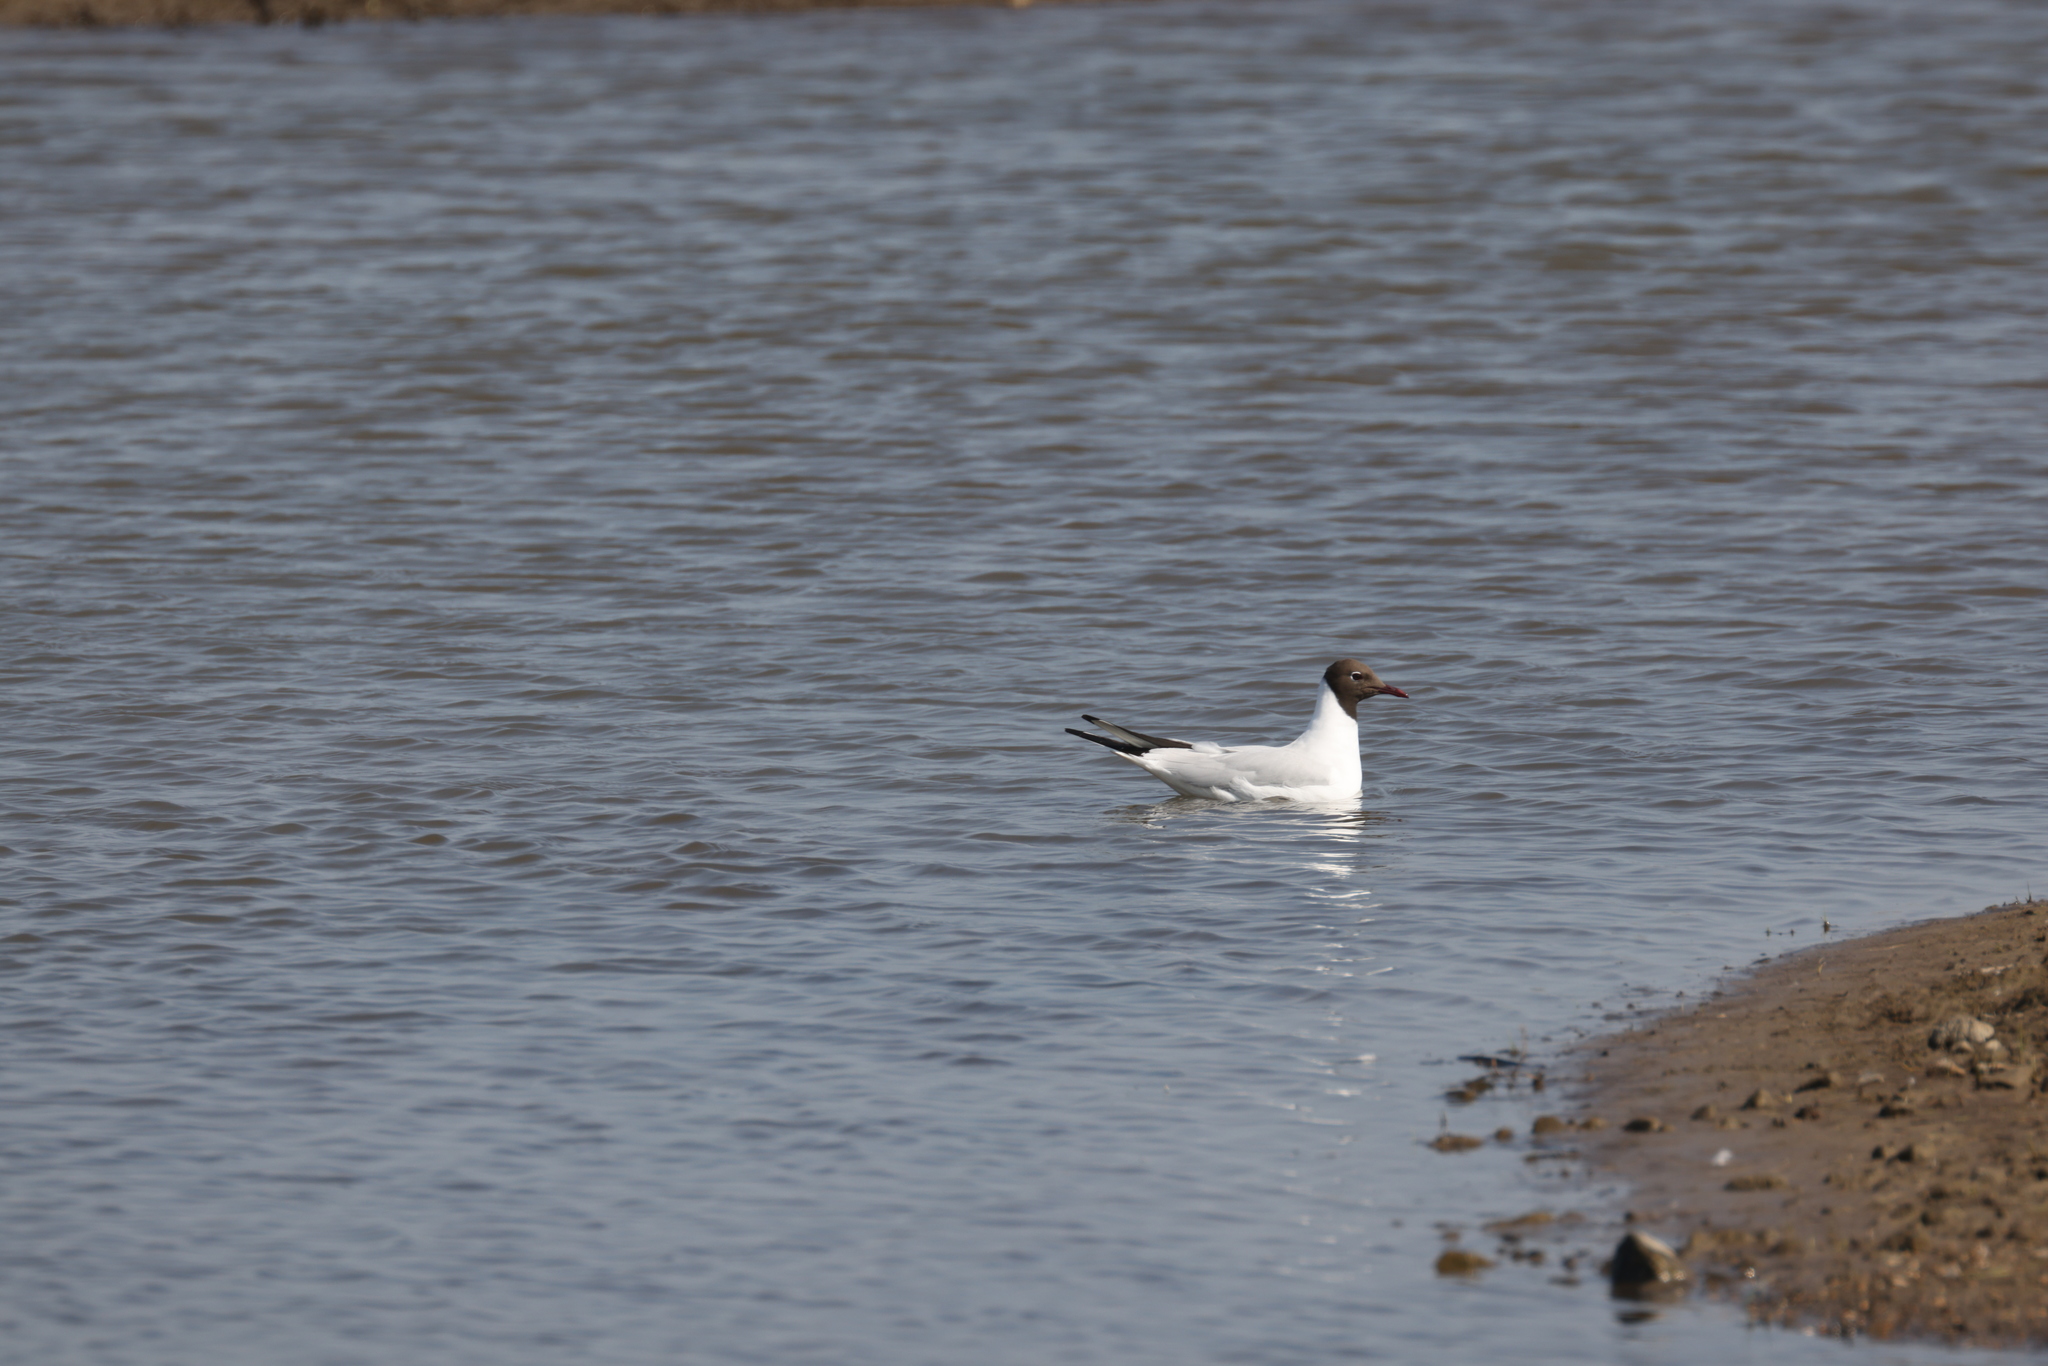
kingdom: Animalia
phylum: Chordata
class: Aves
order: Charadriiformes
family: Laridae
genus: Chroicocephalus
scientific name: Chroicocephalus ridibundus
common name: Black-headed gull
